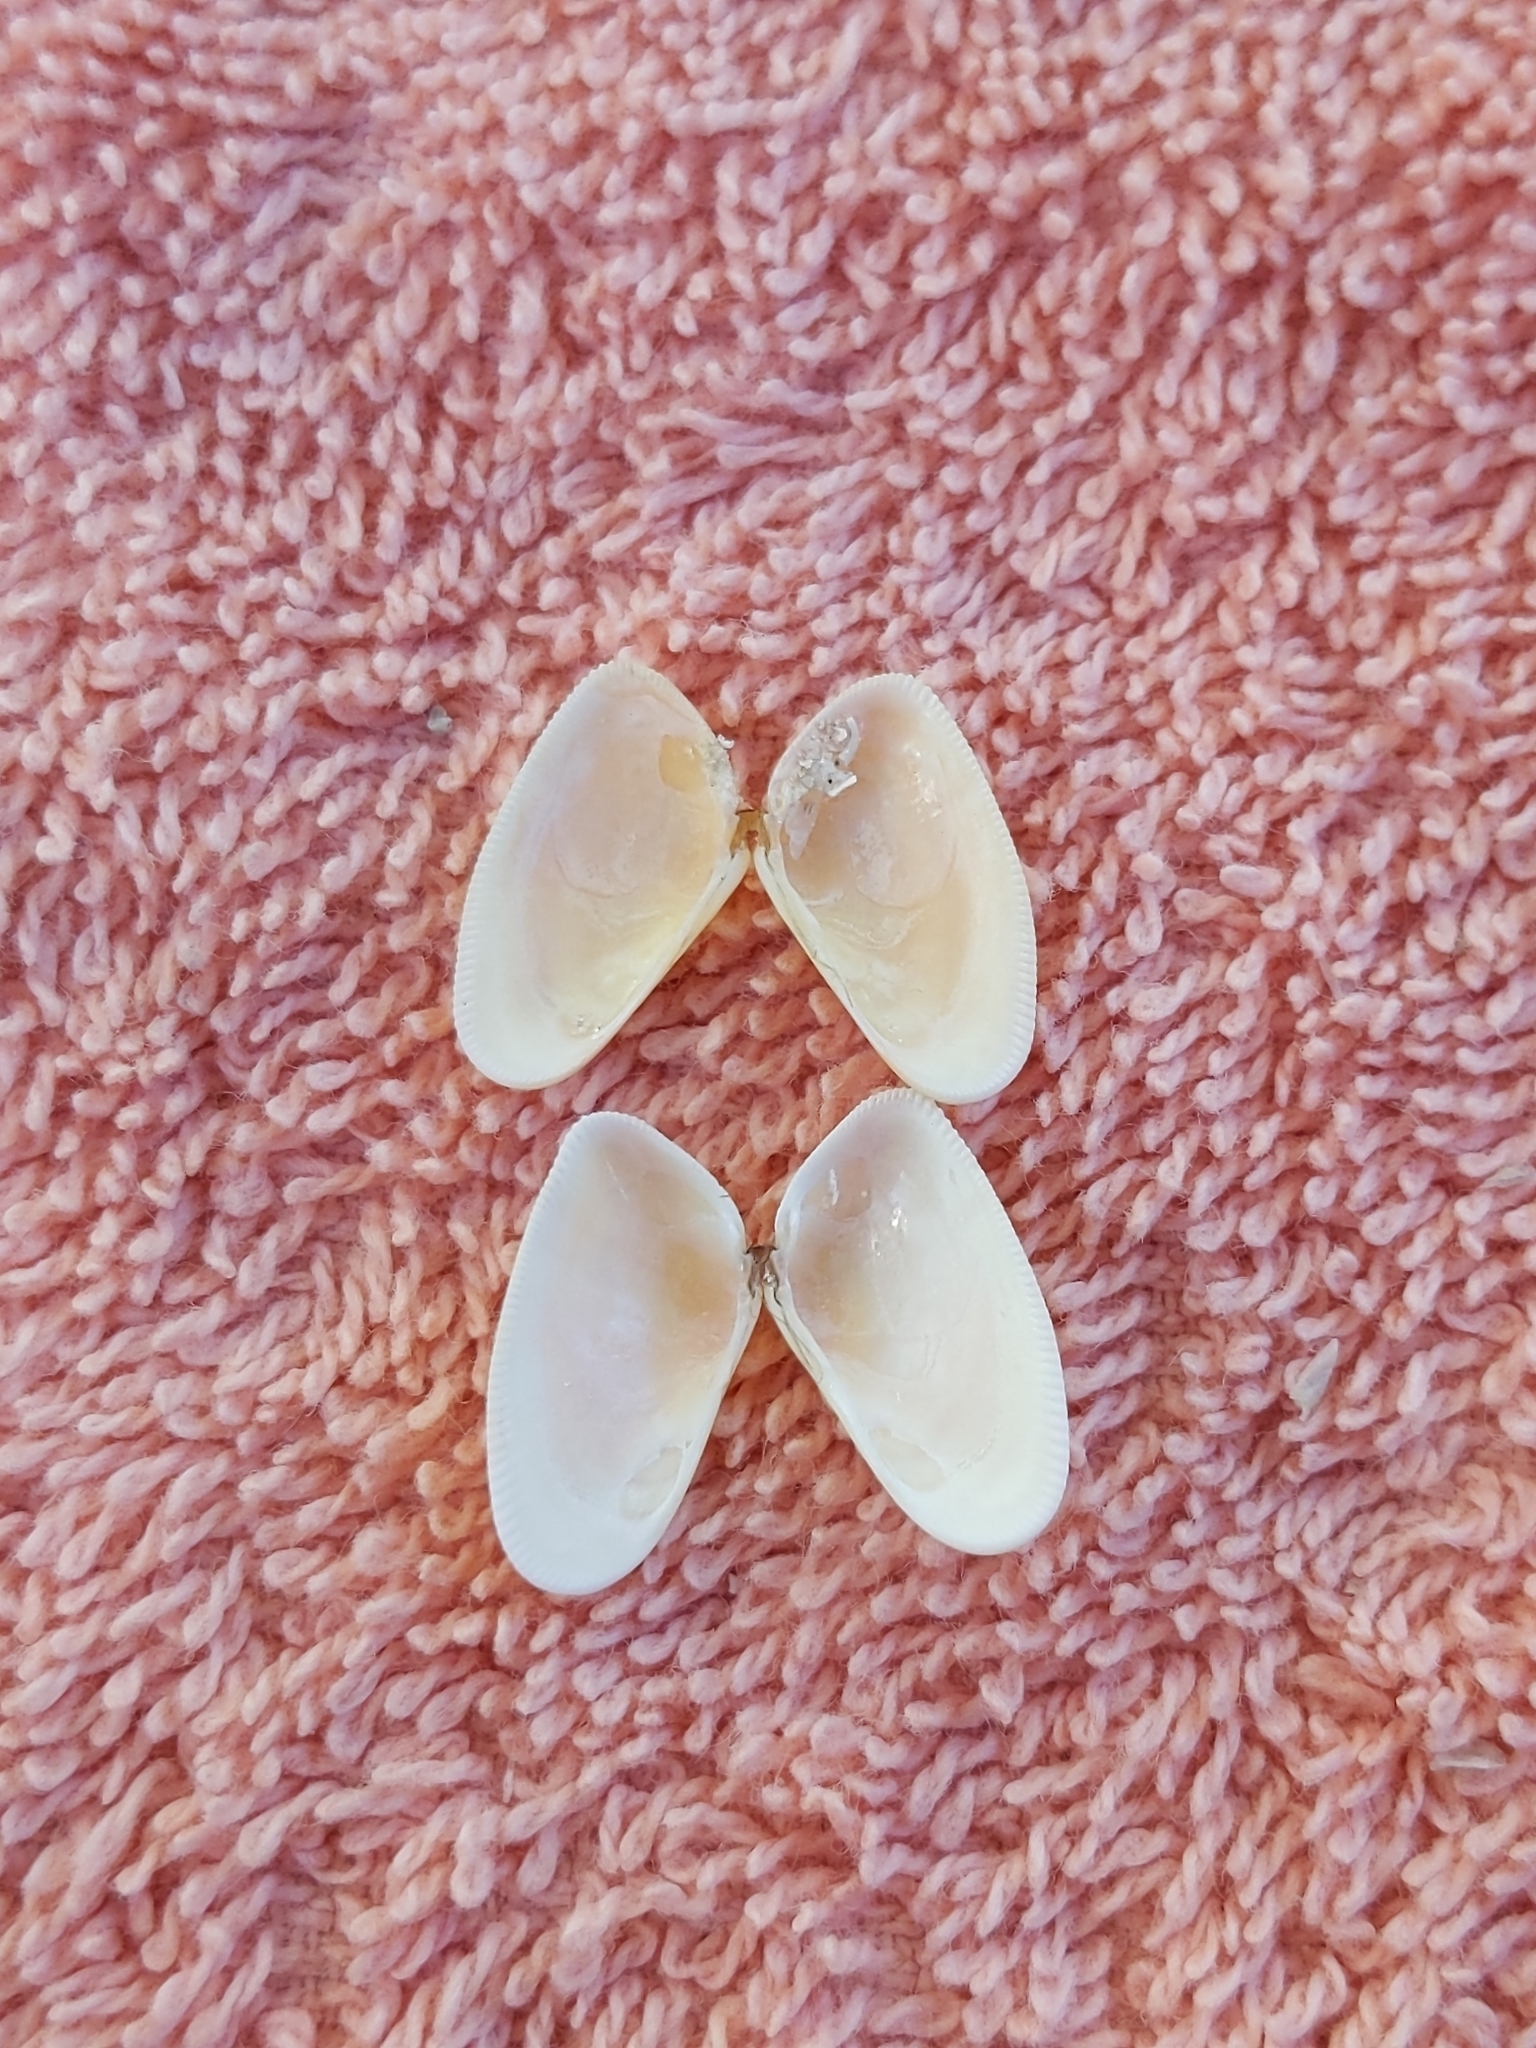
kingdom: Animalia
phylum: Mollusca
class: Bivalvia
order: Cardiida
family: Donacidae
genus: Donax
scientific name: Donax variabilis
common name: Butterfly shell
